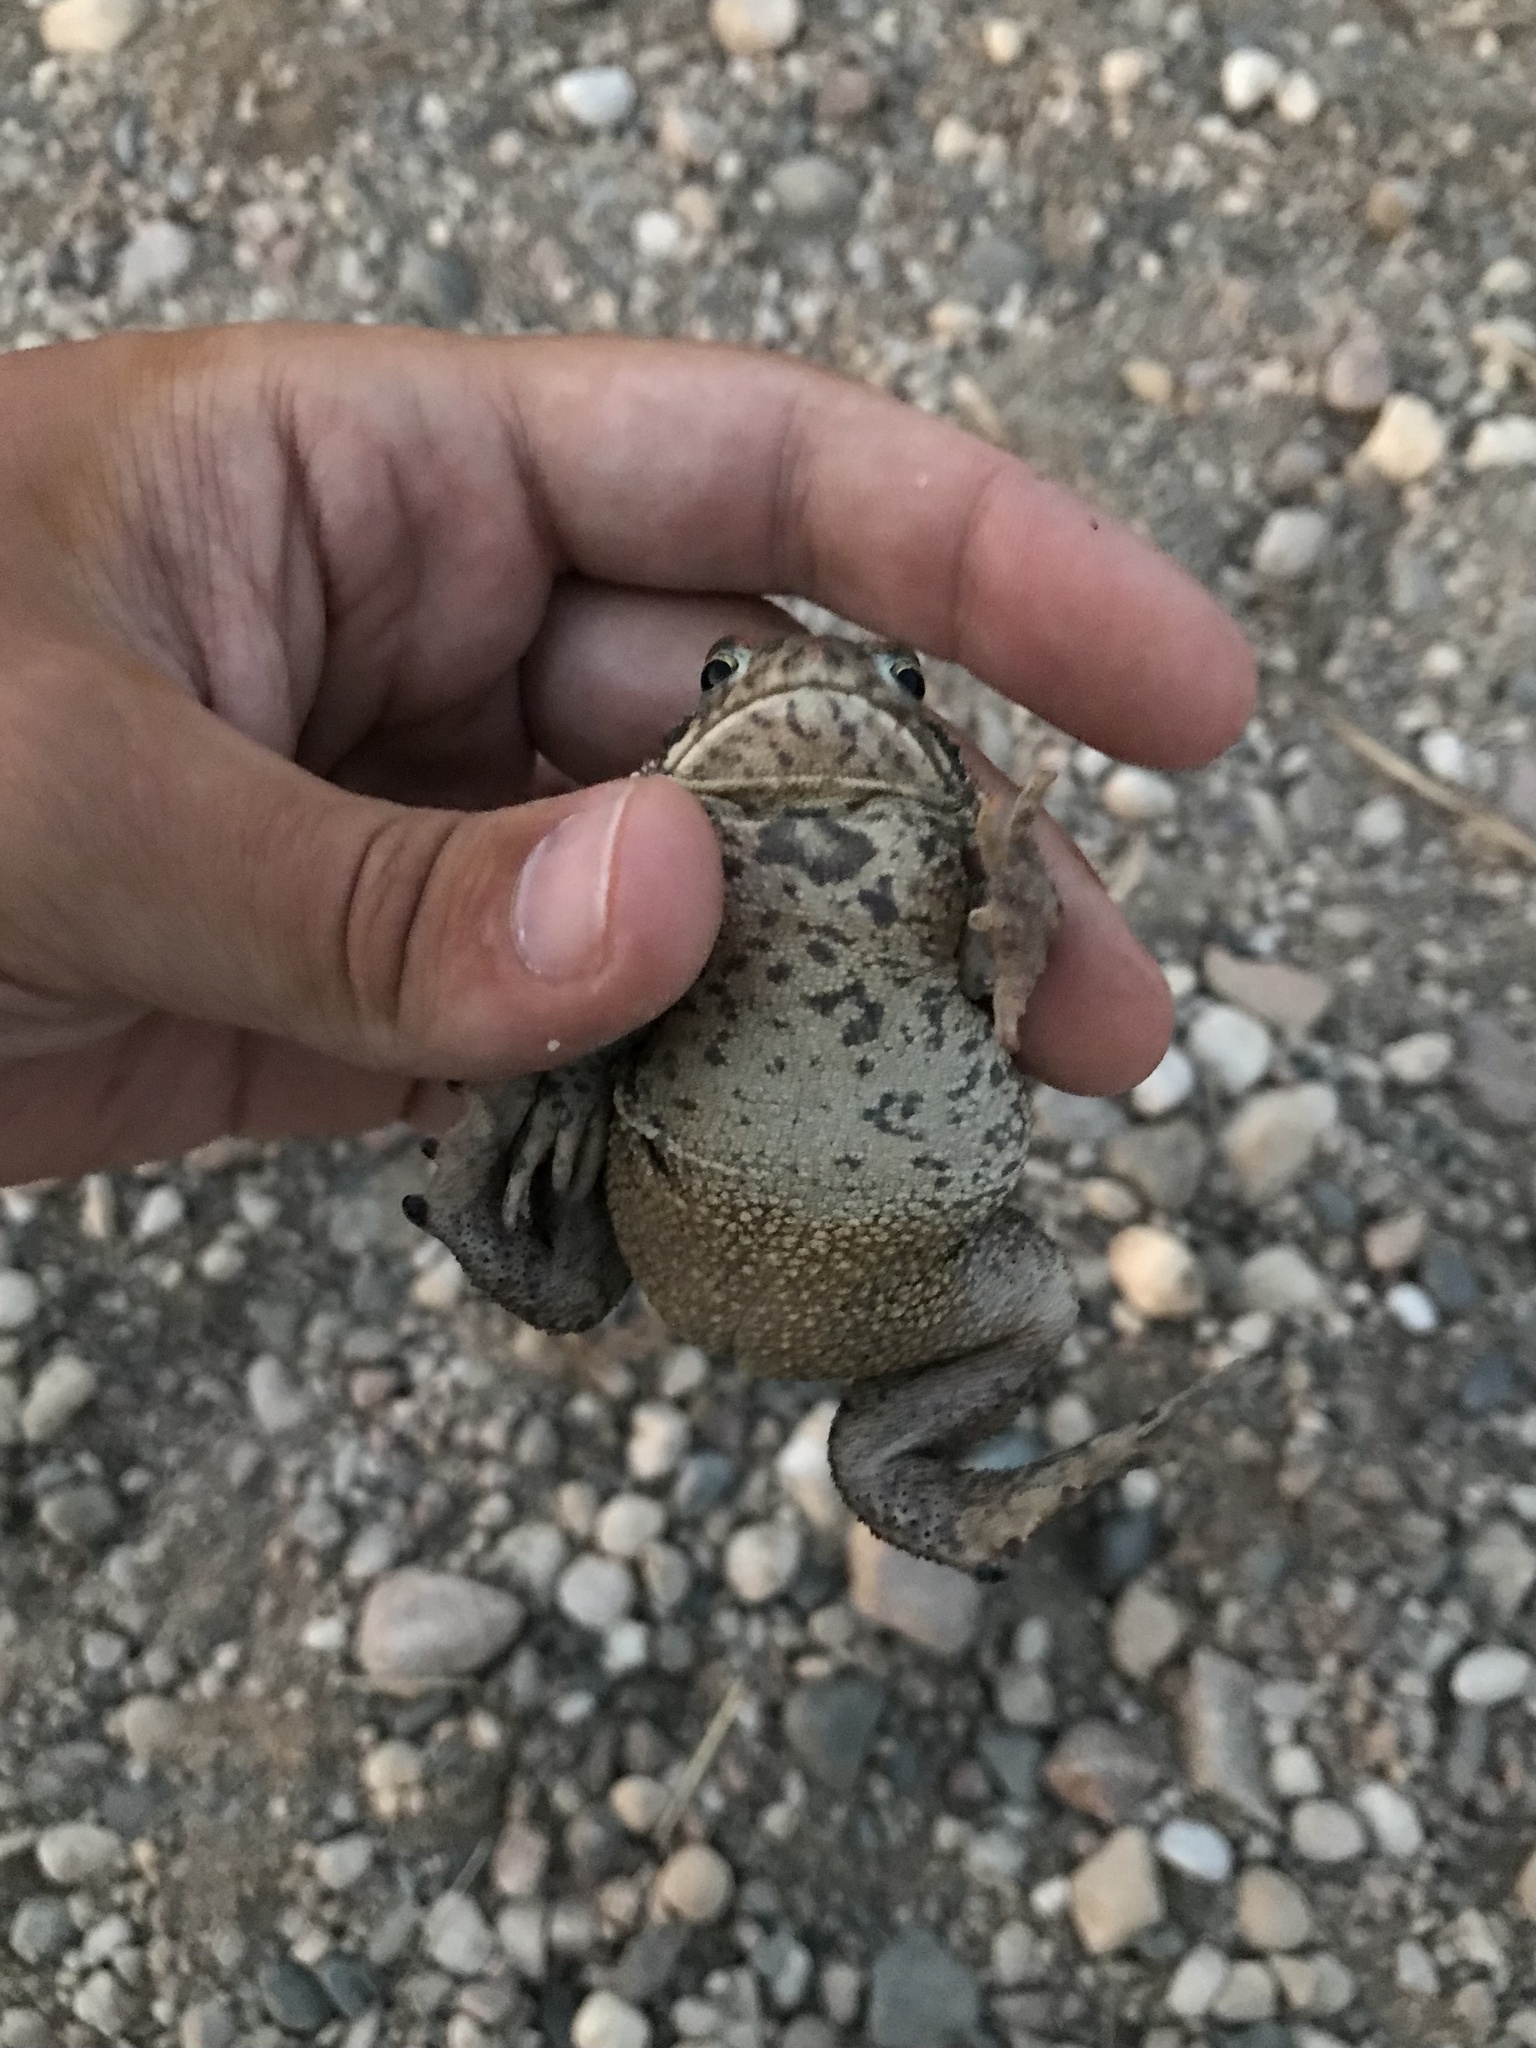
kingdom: Animalia
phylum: Chordata
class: Amphibia
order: Anura
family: Bufonidae
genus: Anaxyrus
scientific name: Anaxyrus americanus
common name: American toad
